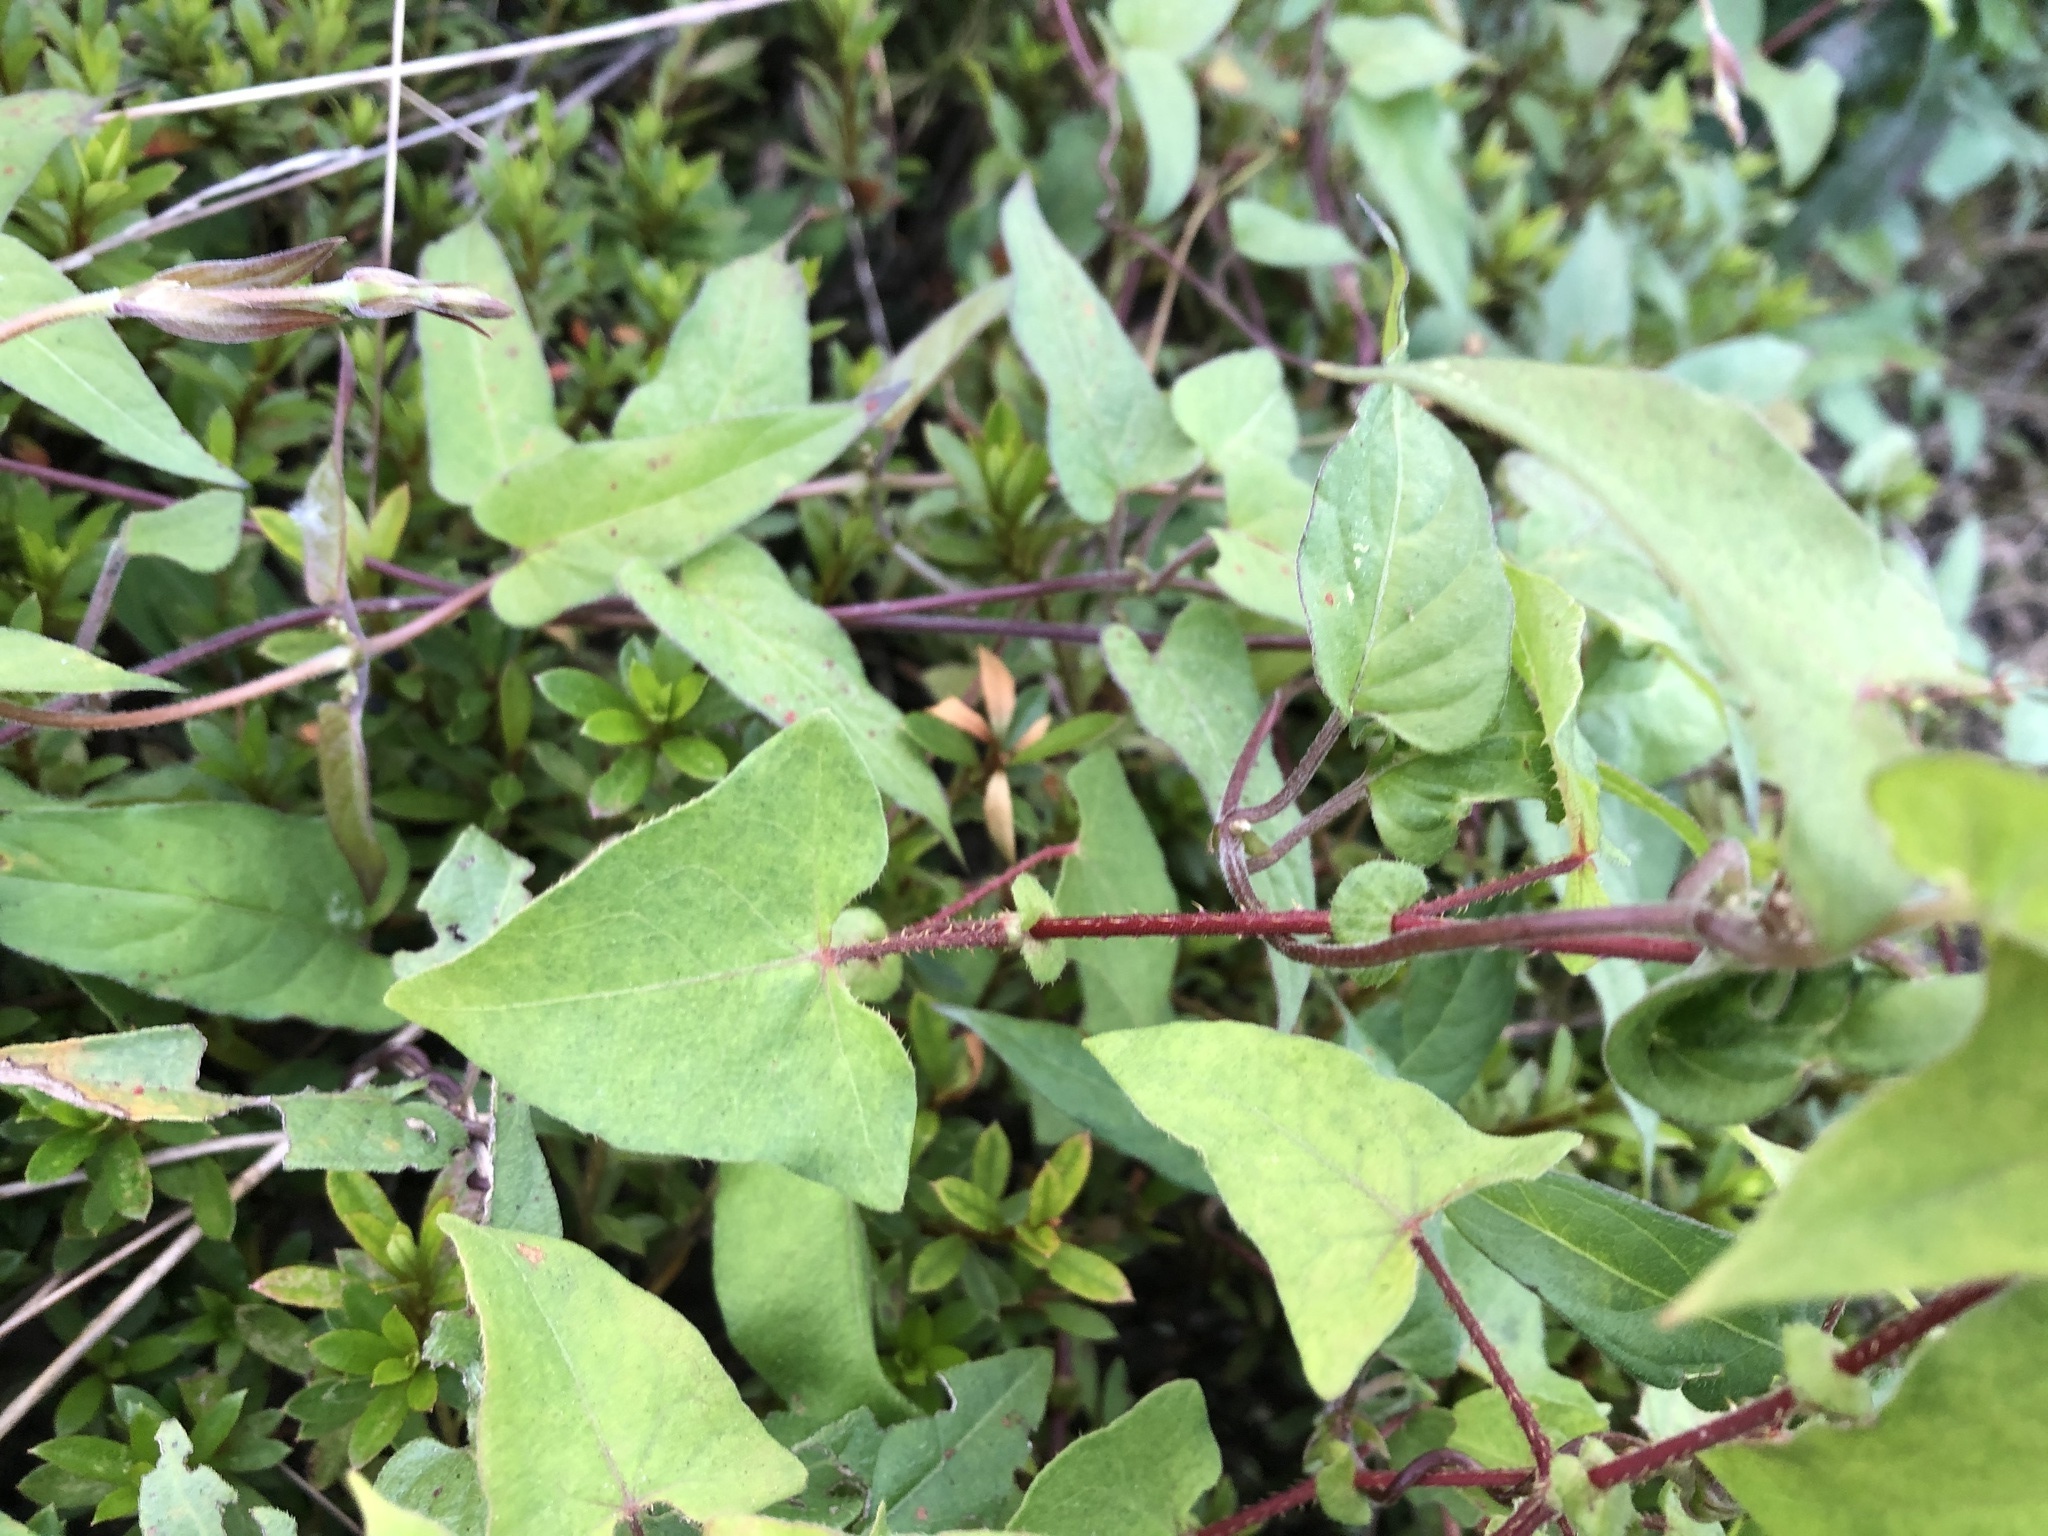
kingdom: Plantae
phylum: Tracheophyta
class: Magnoliopsida
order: Caryophyllales
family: Polygonaceae
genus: Persicaria
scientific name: Persicaria senticosa
